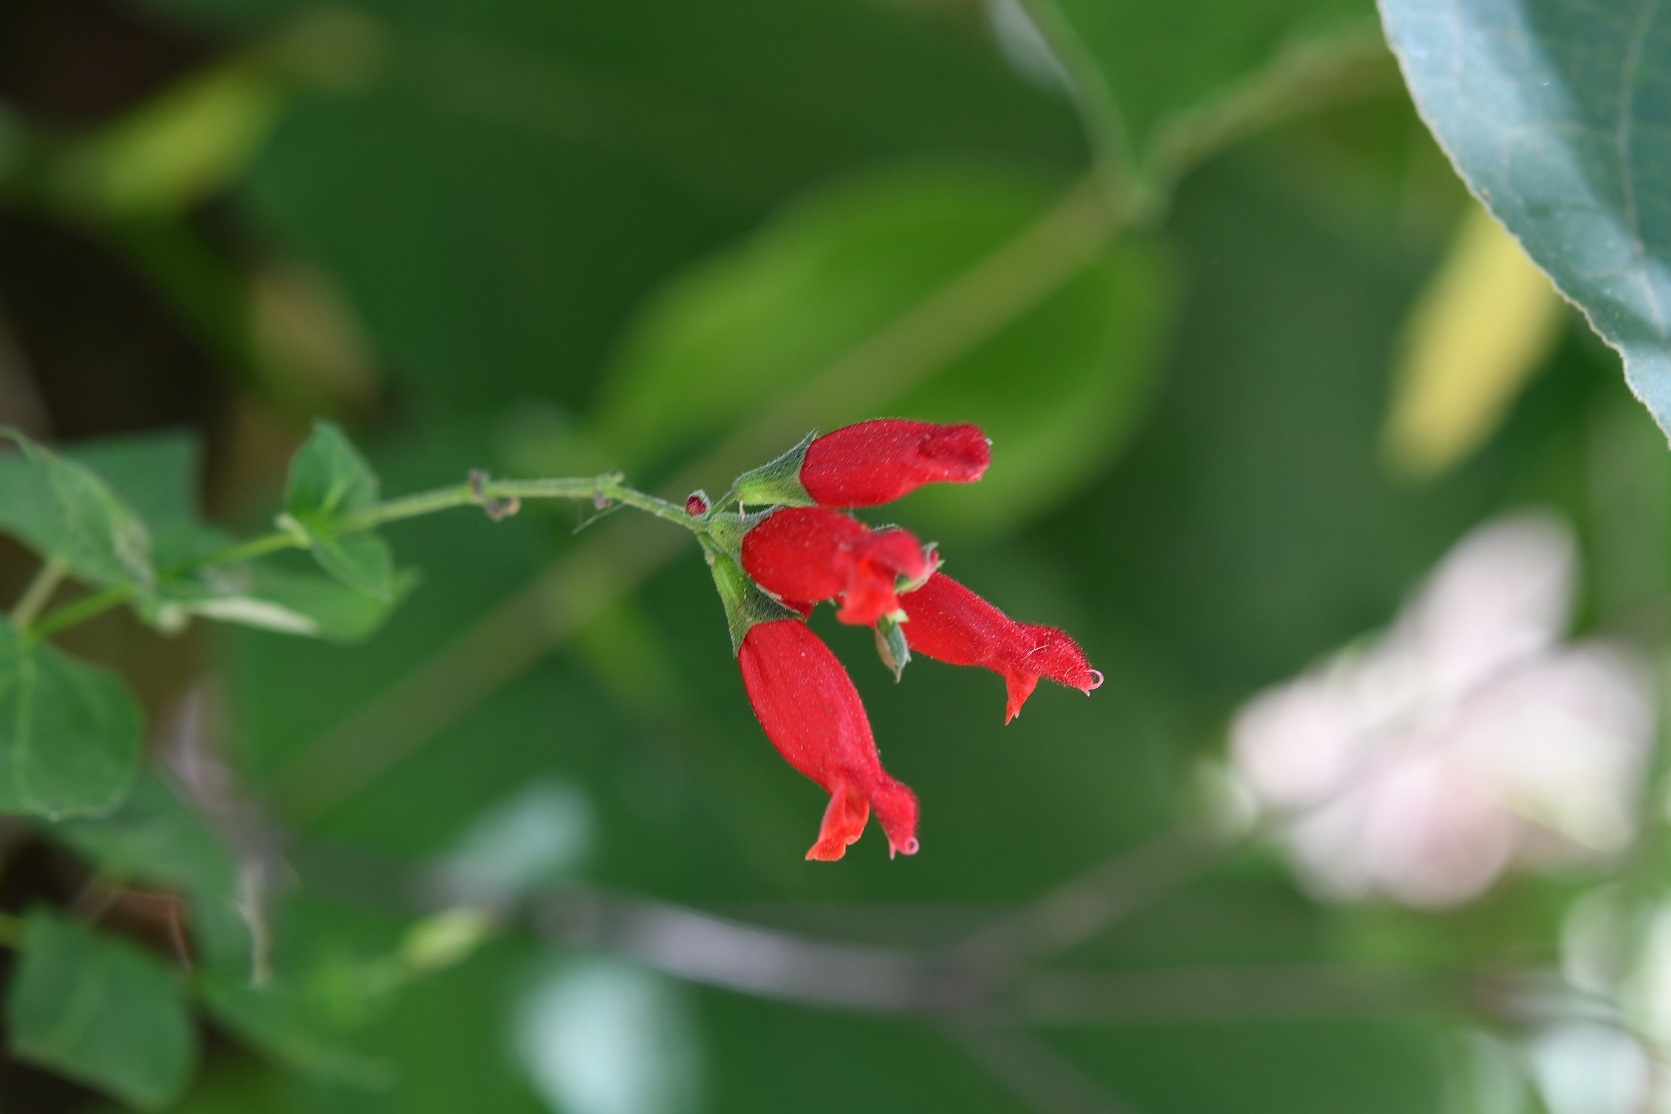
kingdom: Plantae
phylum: Tracheophyta
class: Magnoliopsida
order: Lamiales
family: Lamiaceae
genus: Salvia
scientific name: Salvia holwayi
